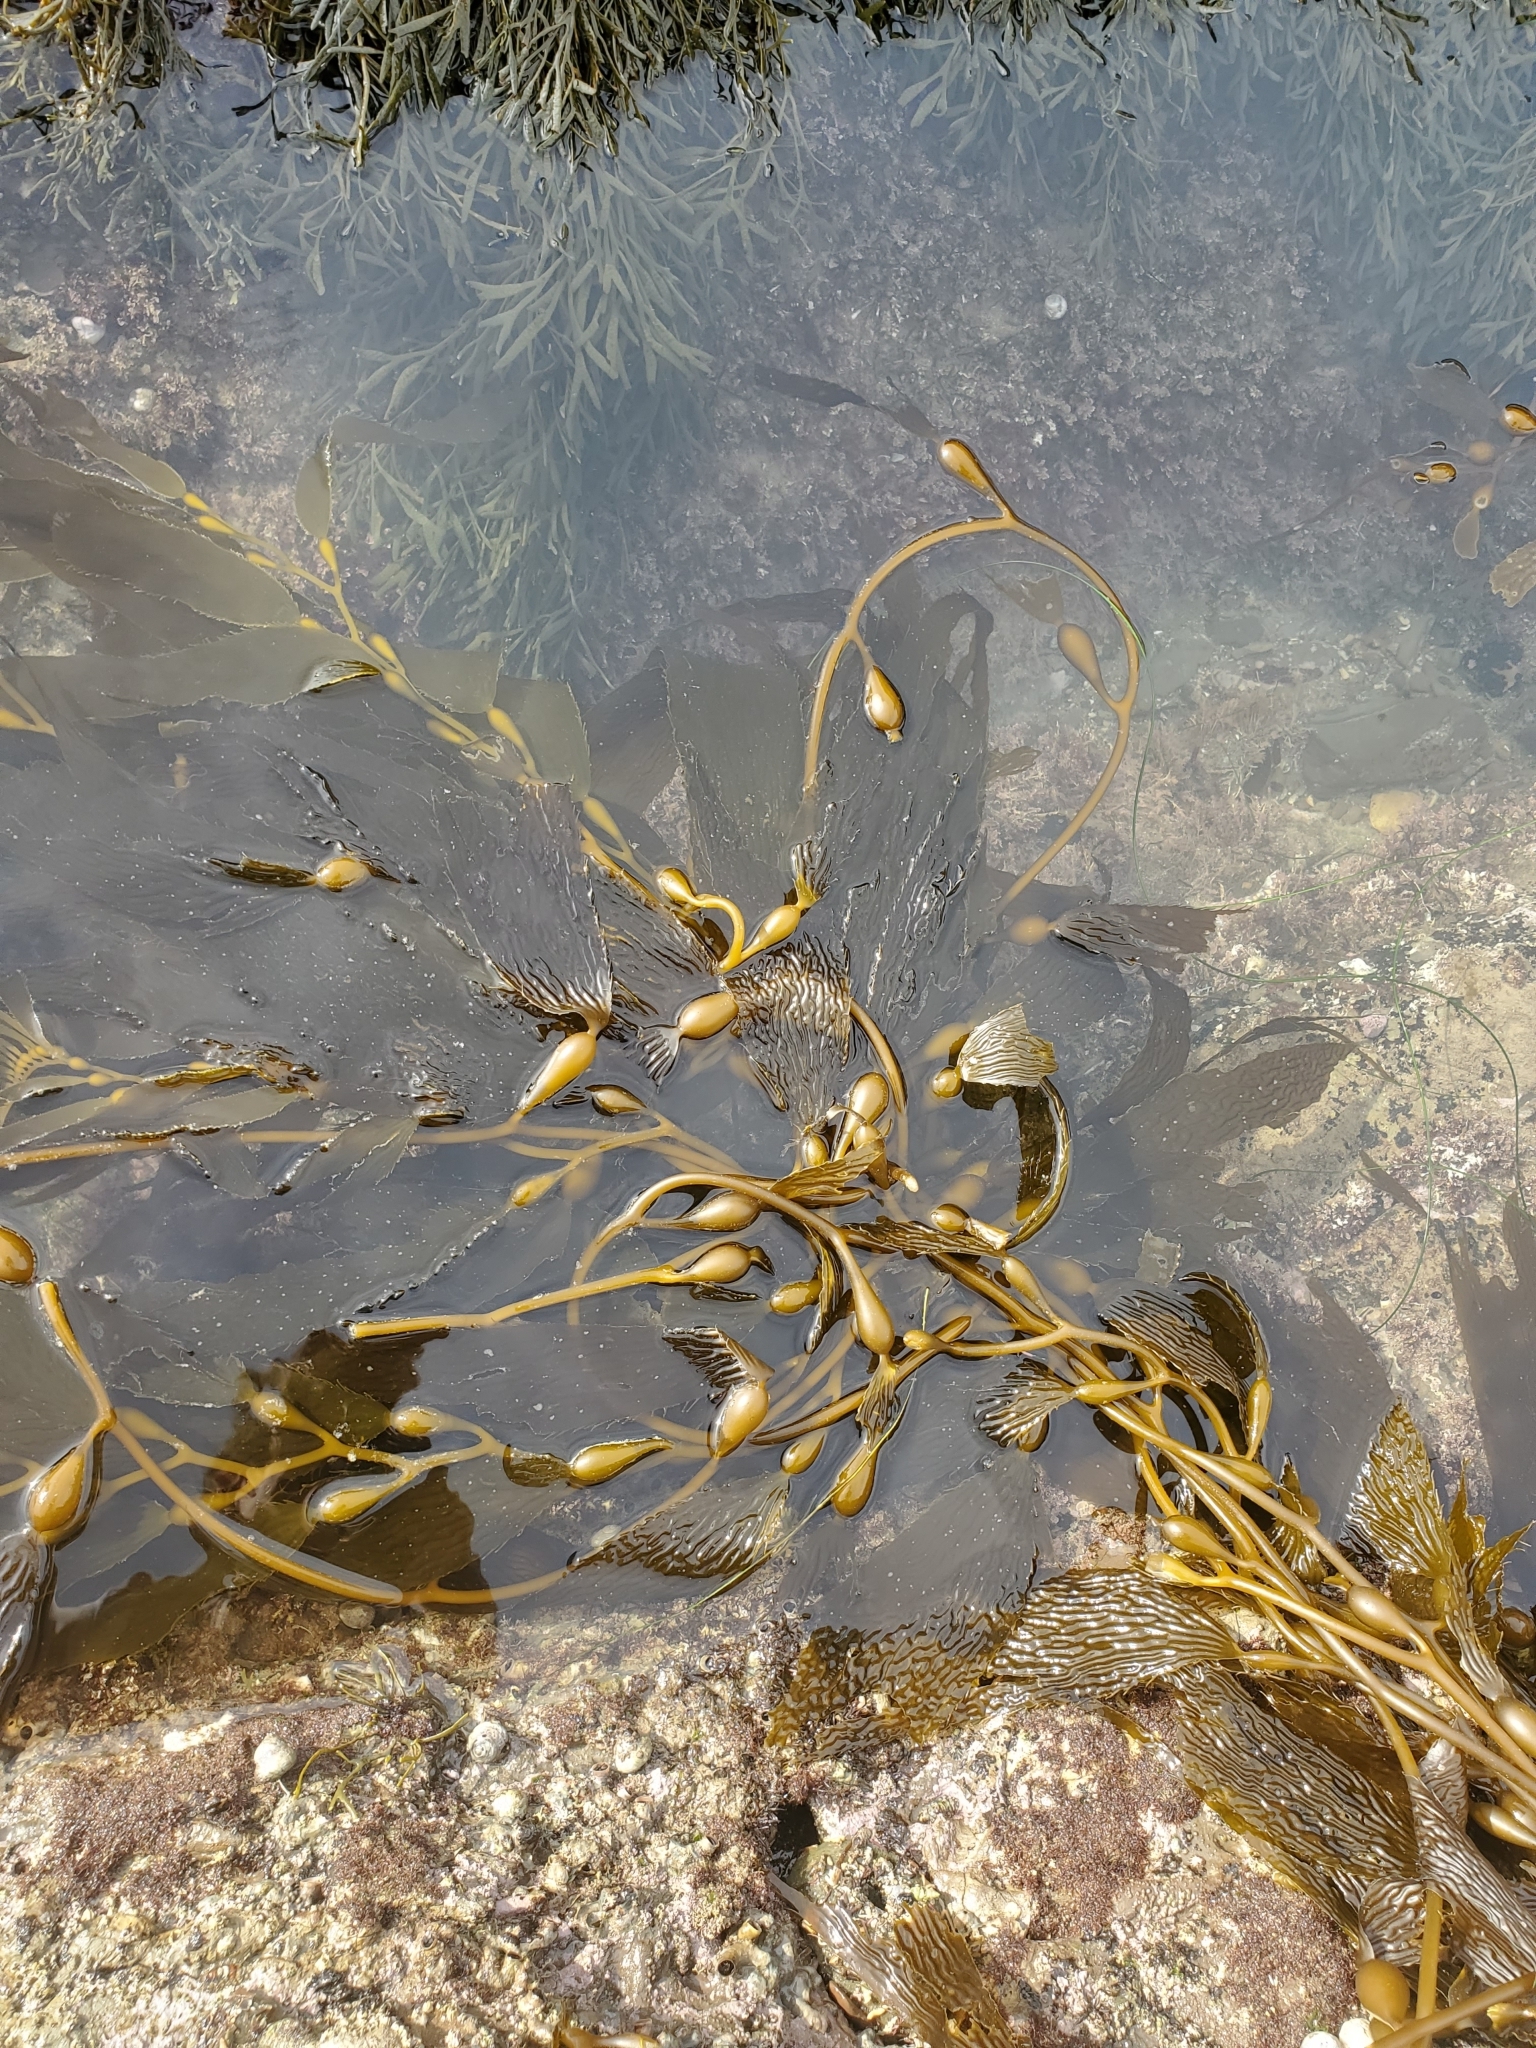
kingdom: Chromista
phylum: Ochrophyta
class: Phaeophyceae
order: Laminariales
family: Laminariaceae
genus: Macrocystis
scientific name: Macrocystis pyrifera
